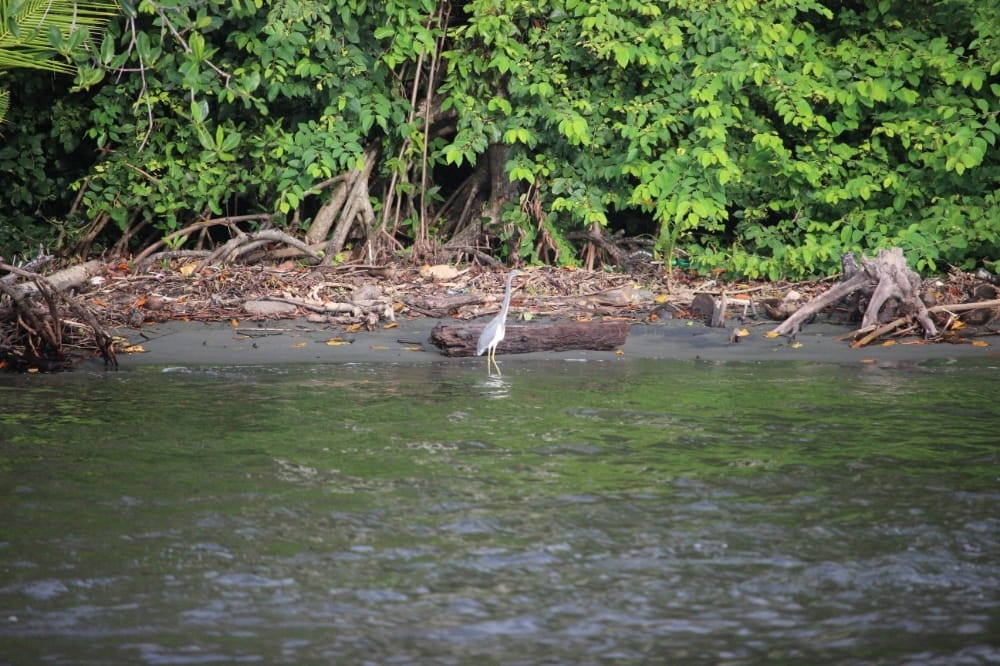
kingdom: Animalia
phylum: Chordata
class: Aves
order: Pelecaniformes
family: Ardeidae
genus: Egretta
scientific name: Egretta tricolor
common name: Tricolored heron
